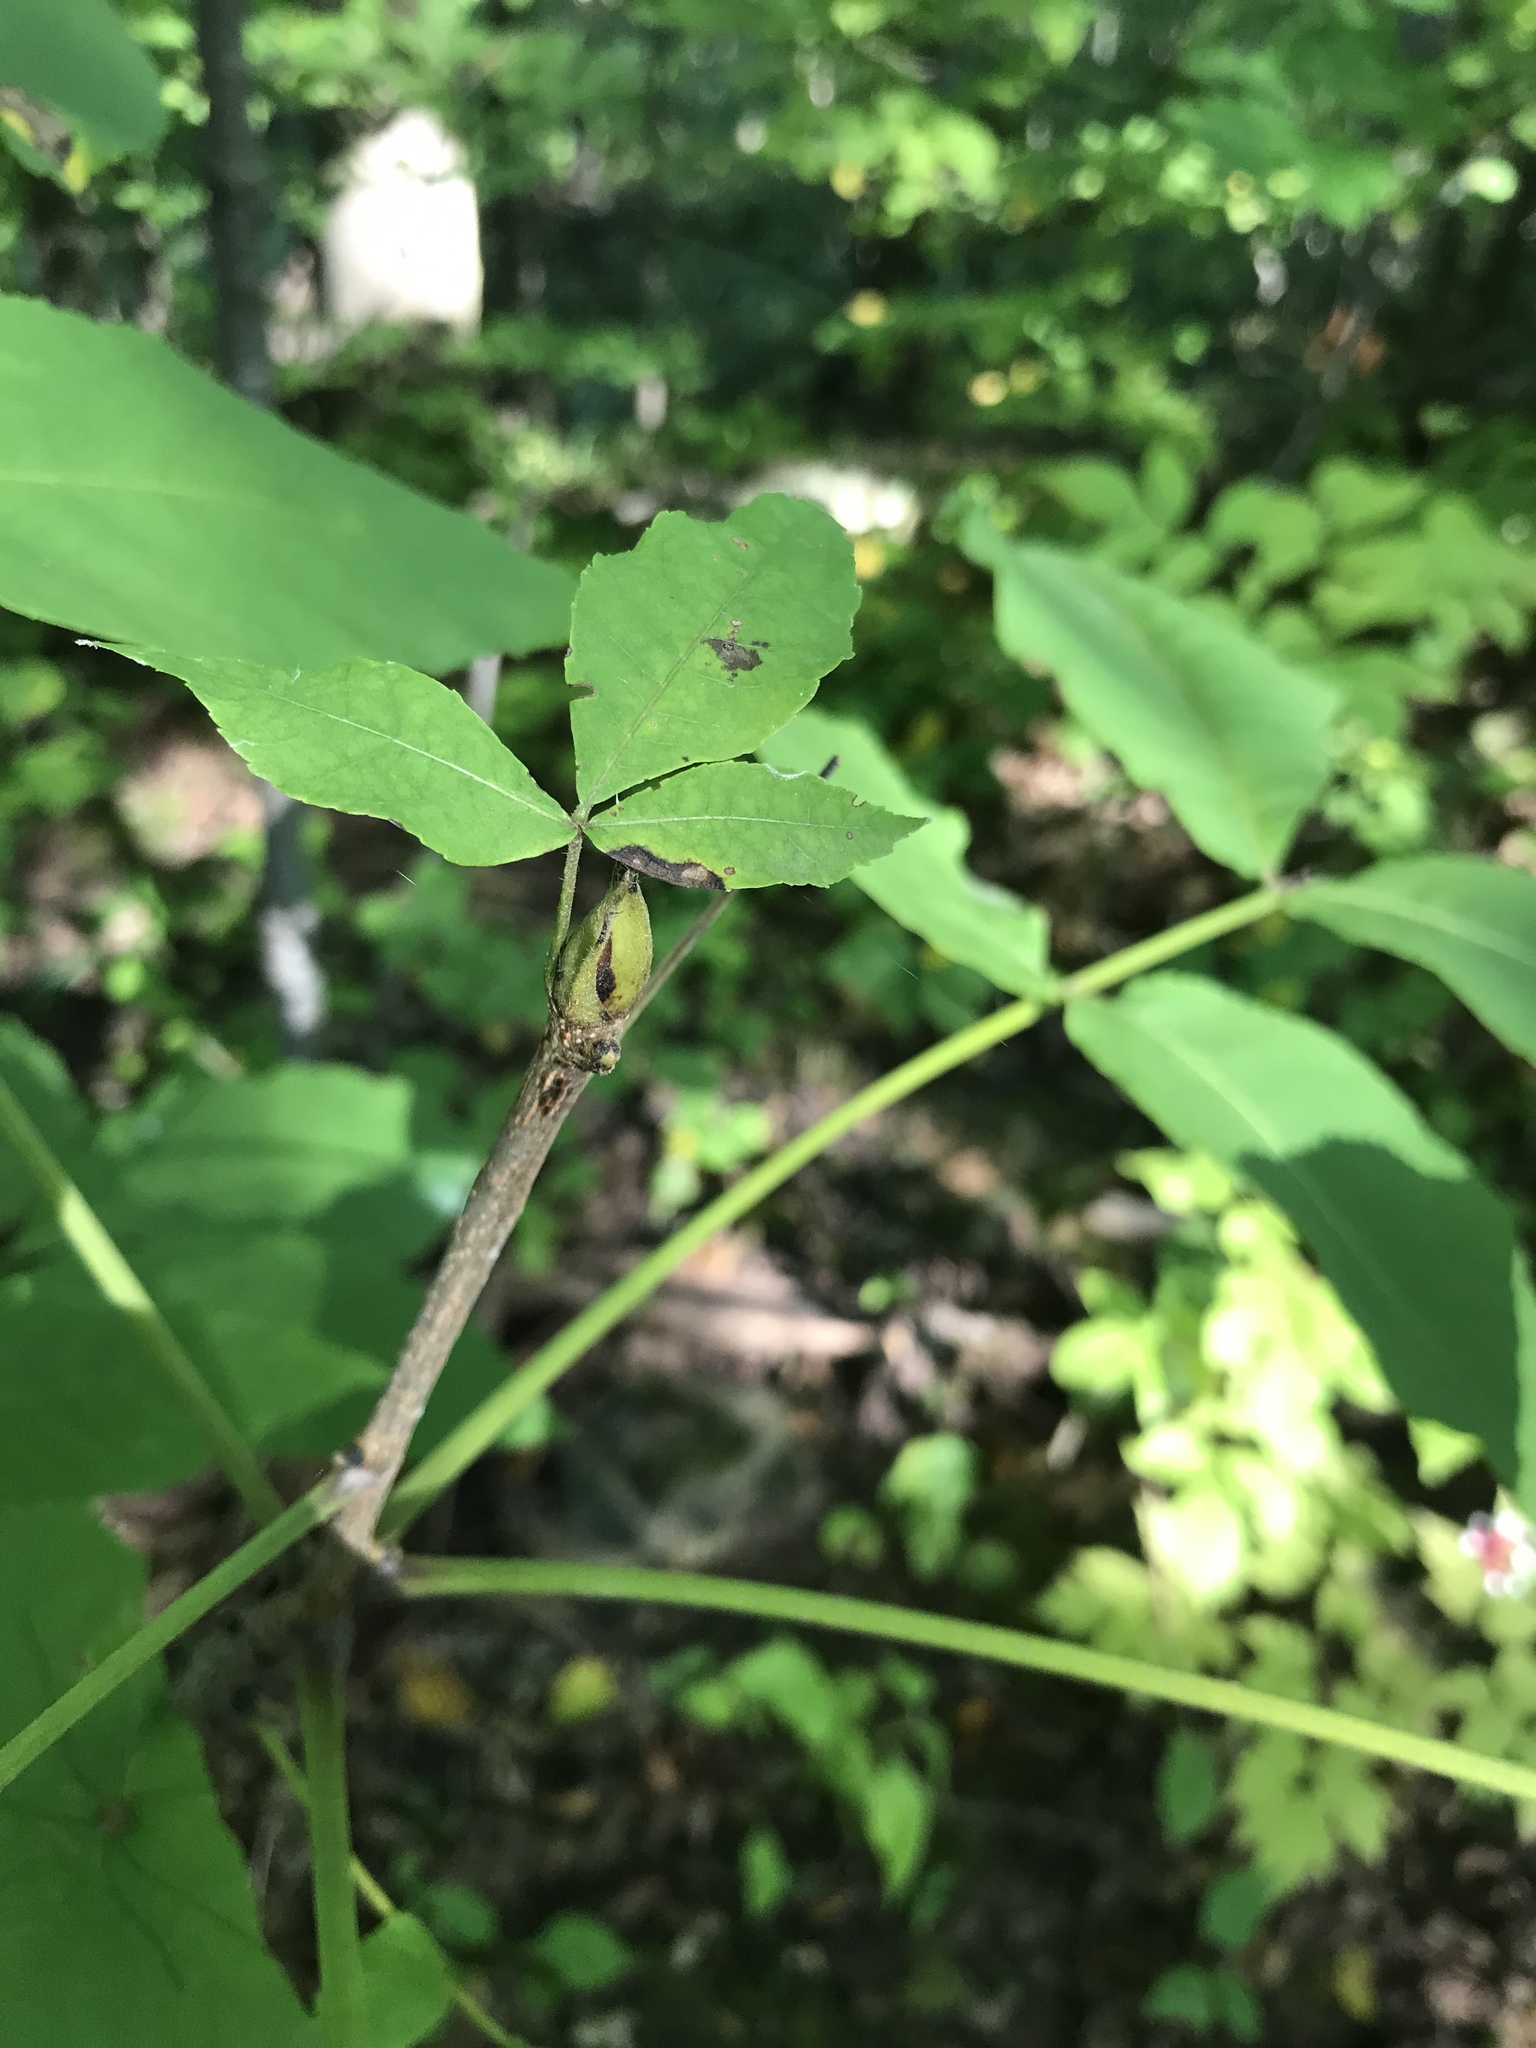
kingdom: Plantae
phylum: Tracheophyta
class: Magnoliopsida
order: Fagales
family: Juglandaceae
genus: Carya
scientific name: Carya ovata
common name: Shagbark hickory
